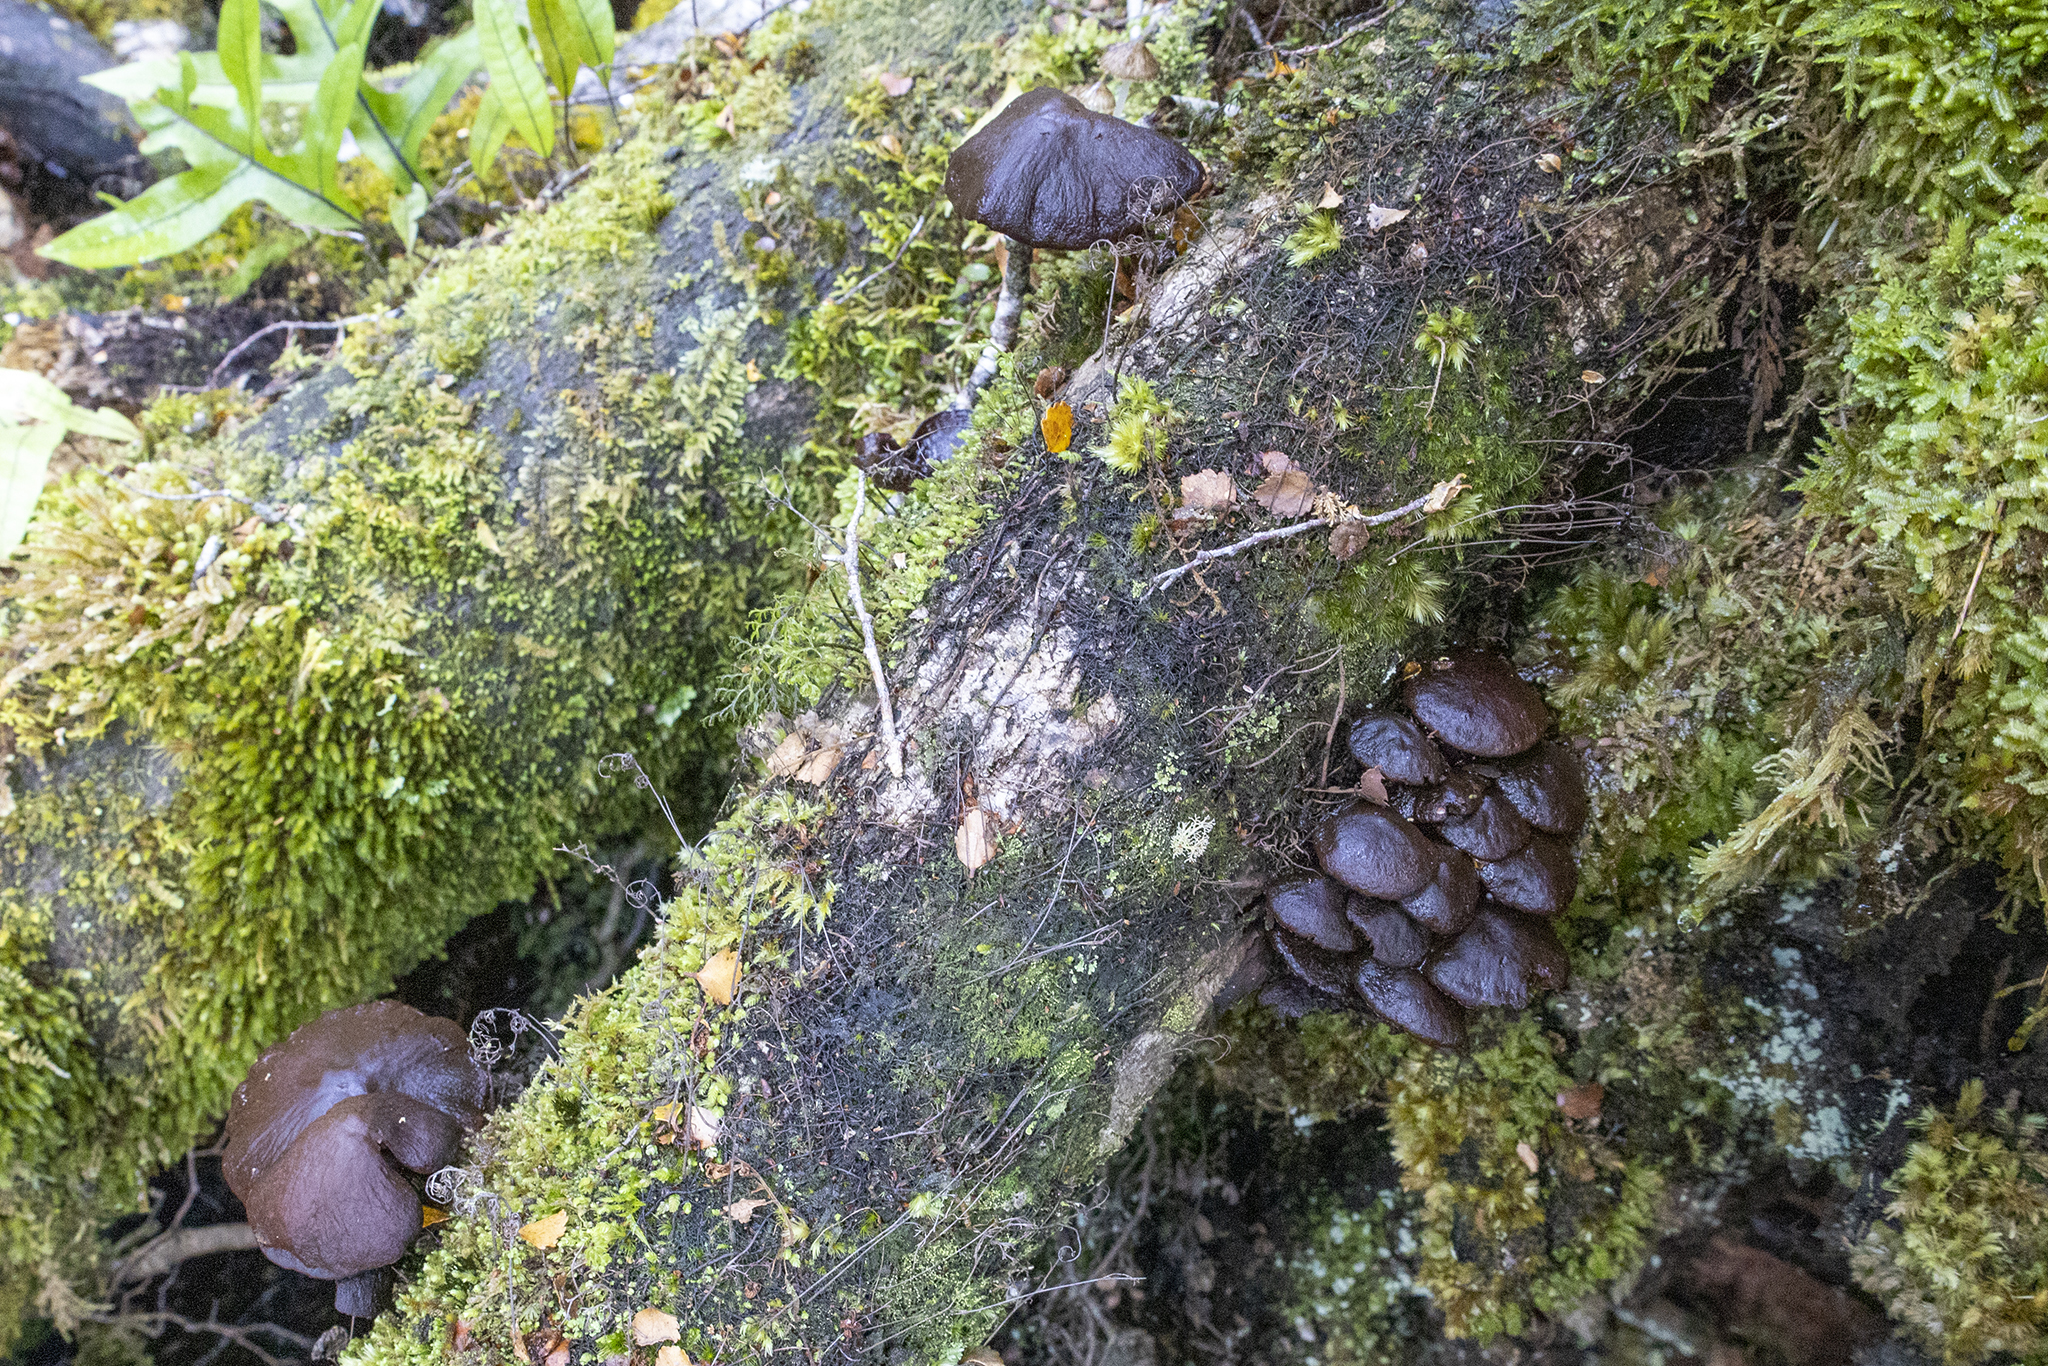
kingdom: Fungi
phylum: Basidiomycota
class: Agaricomycetes
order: Agaricales
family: Strophariaceae
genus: Hypholoma
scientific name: Hypholoma brunneum
